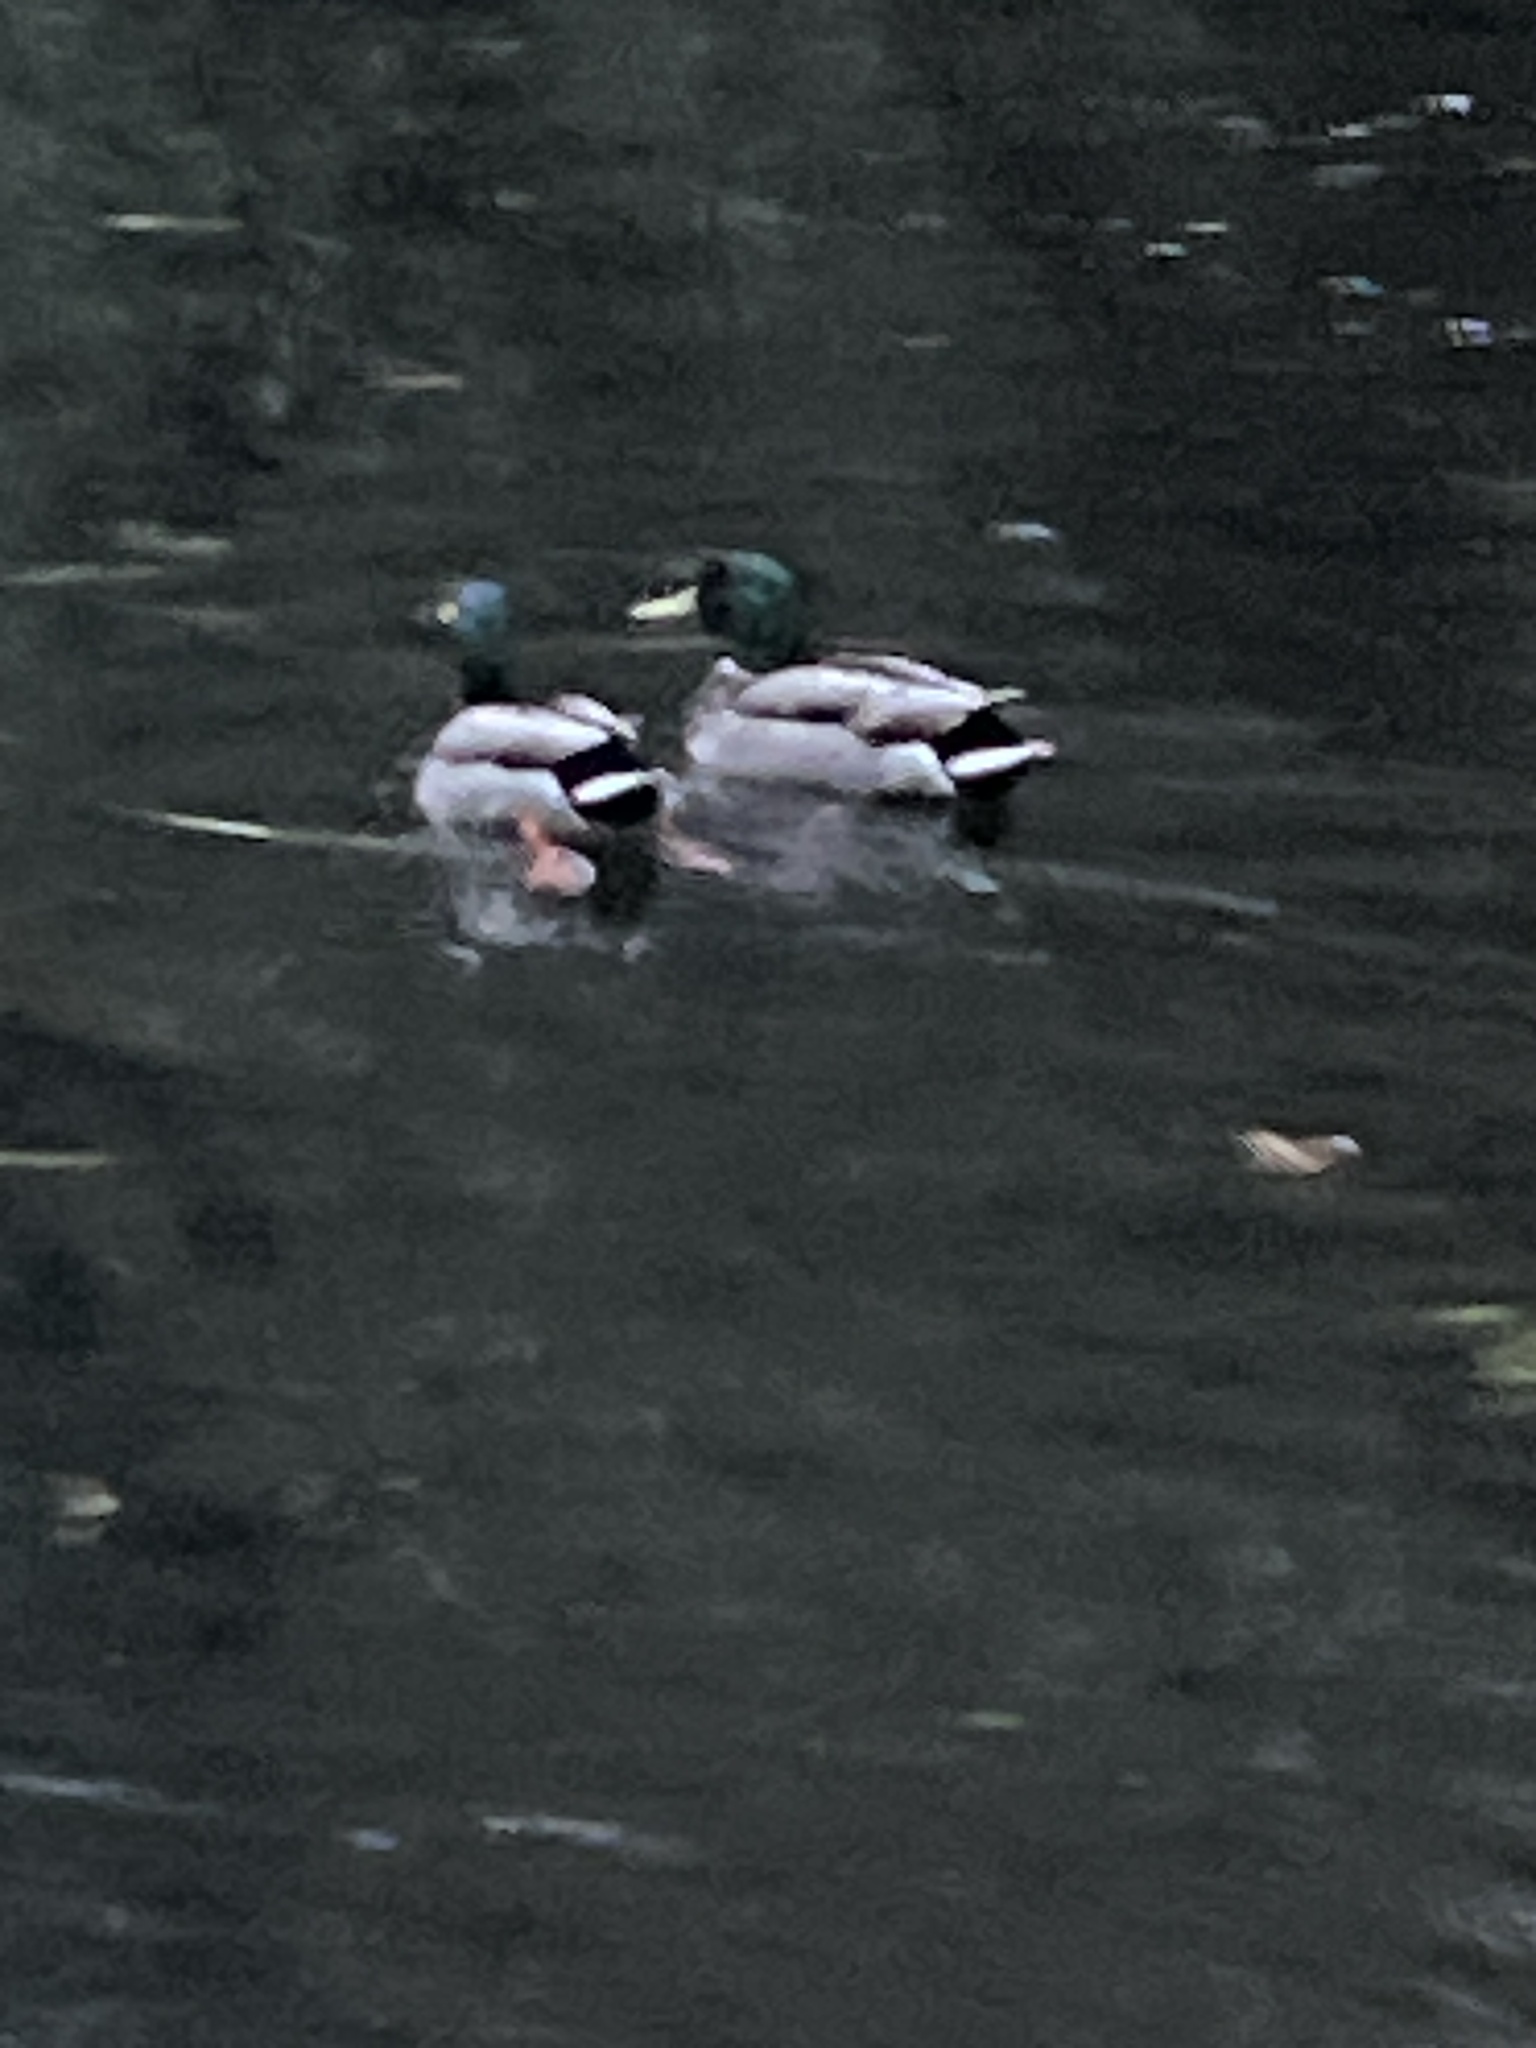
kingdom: Animalia
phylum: Chordata
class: Aves
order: Anseriformes
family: Anatidae
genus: Anas
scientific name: Anas platyrhynchos
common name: Mallard
